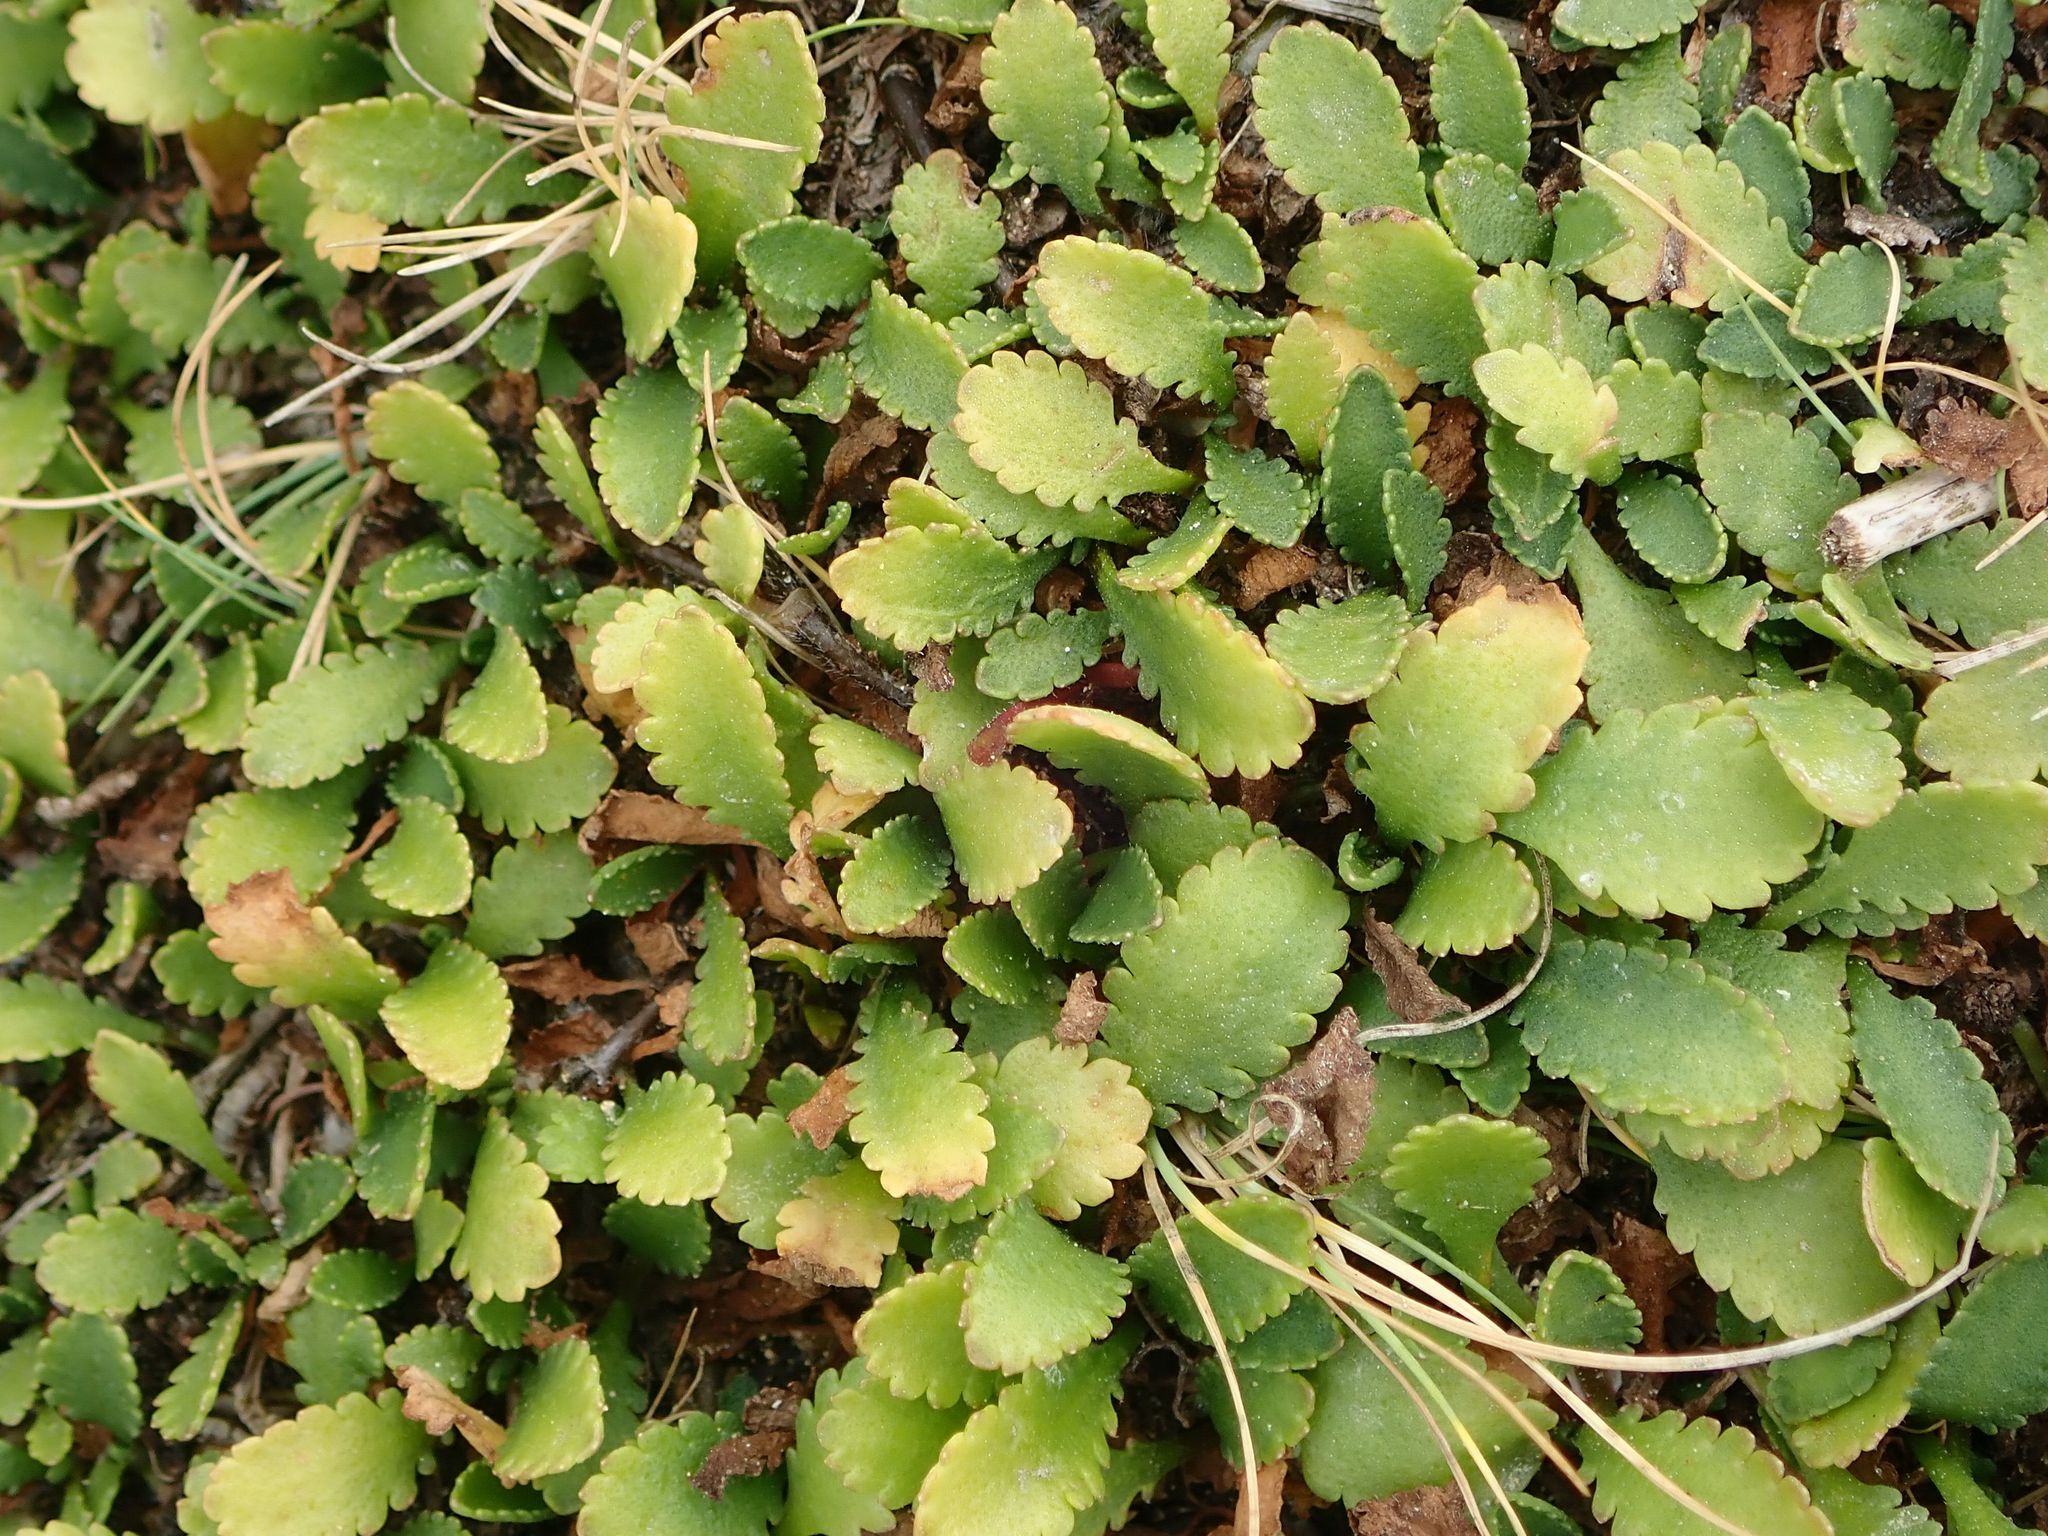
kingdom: Plantae
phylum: Tracheophyta
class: Magnoliopsida
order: Asterales
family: Asteraceae
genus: Leptinella
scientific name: Leptinella dioica
